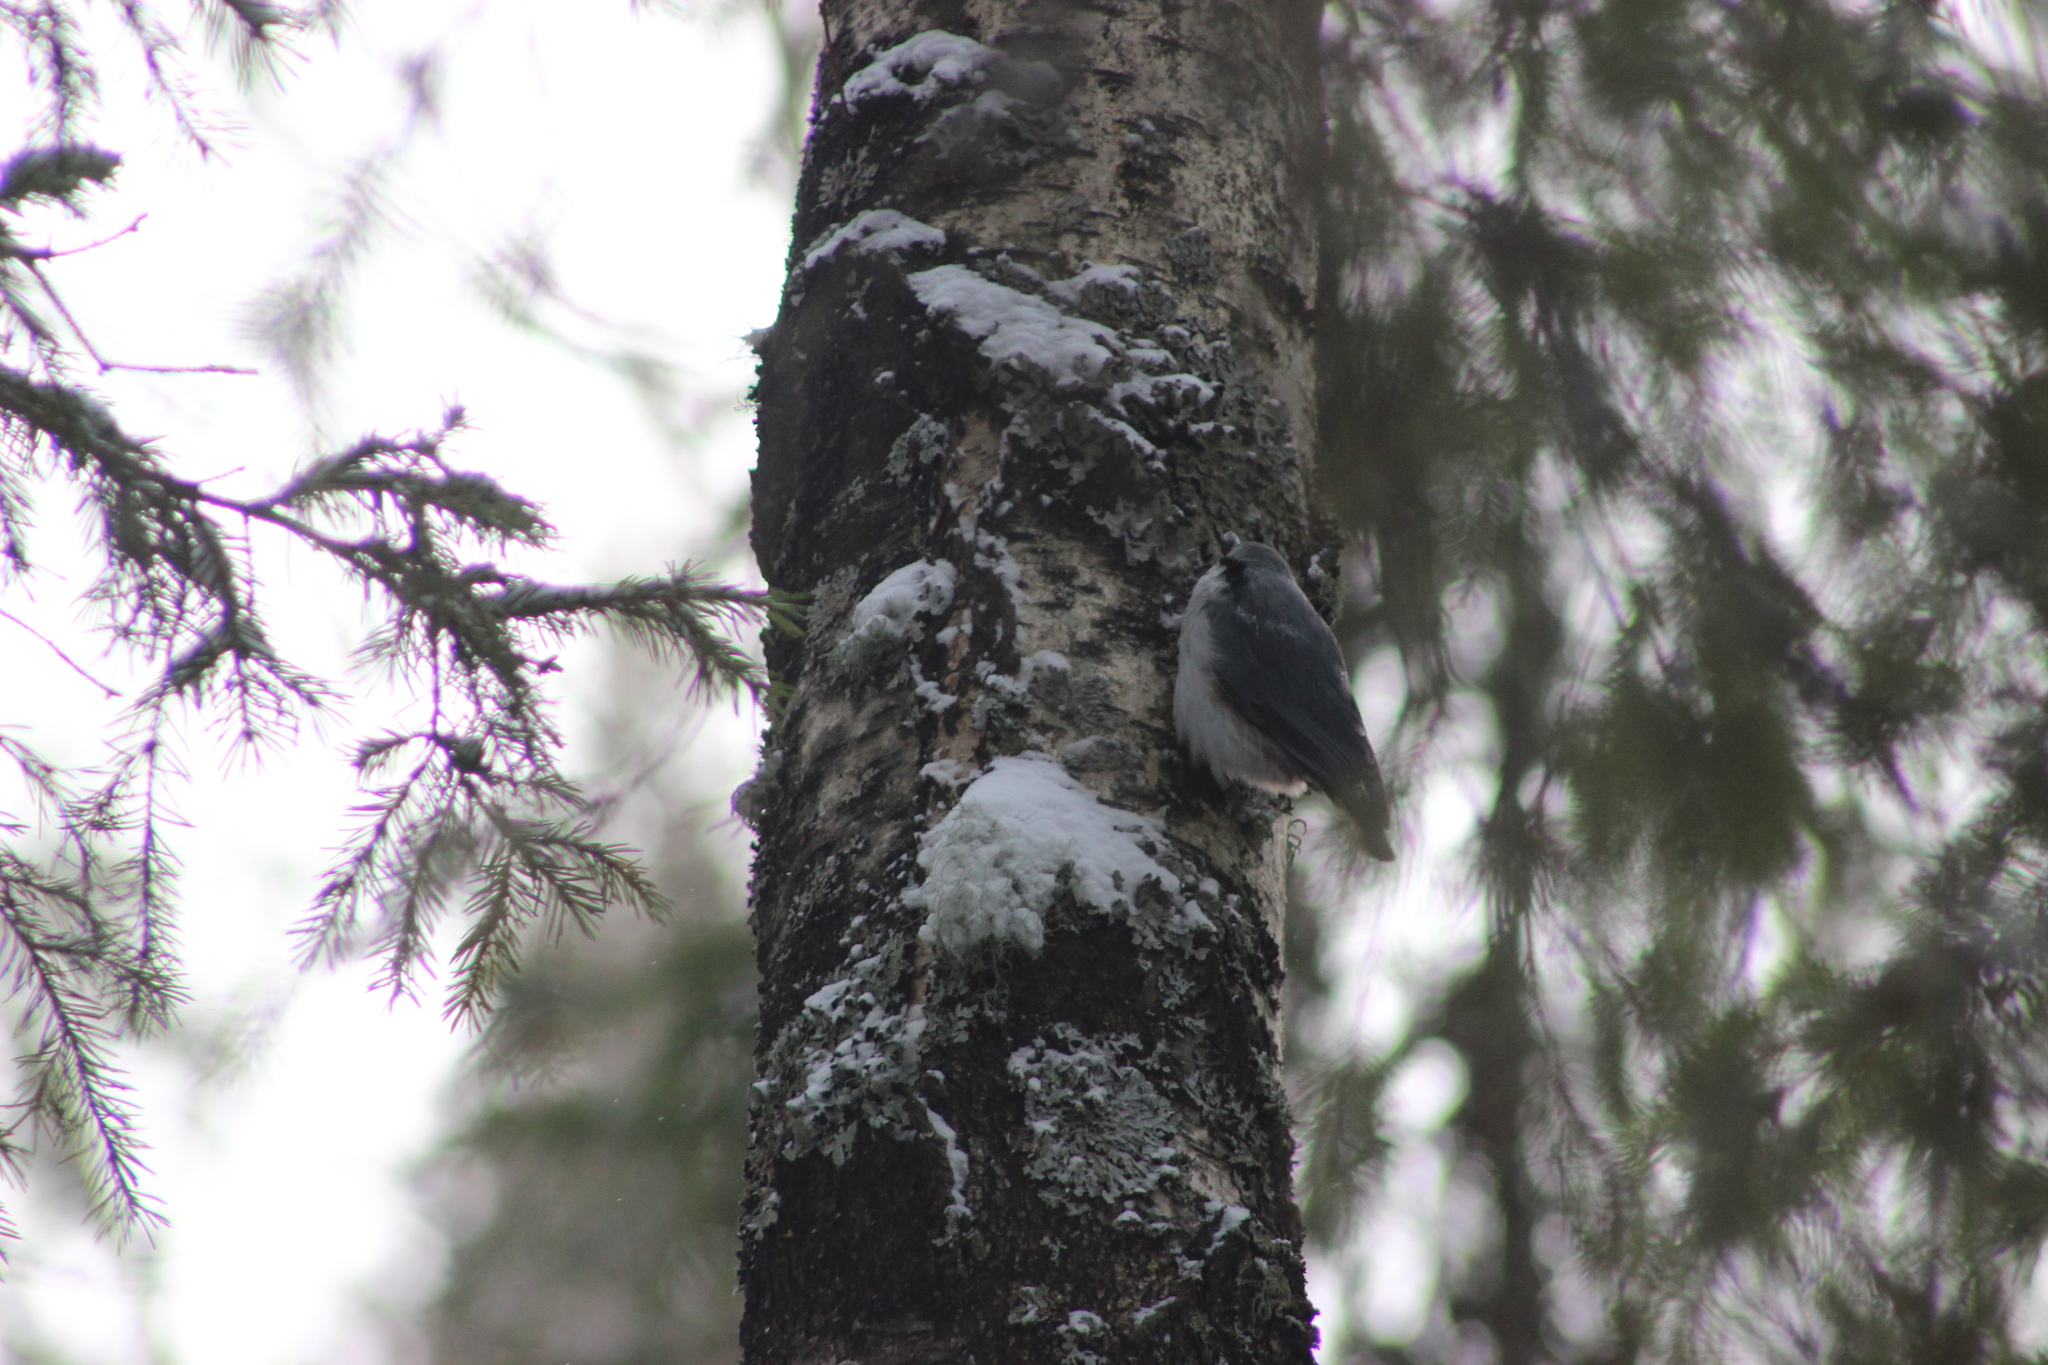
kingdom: Animalia
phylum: Chordata
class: Aves
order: Passeriformes
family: Sittidae
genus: Sitta
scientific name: Sitta europaea
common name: Eurasian nuthatch
